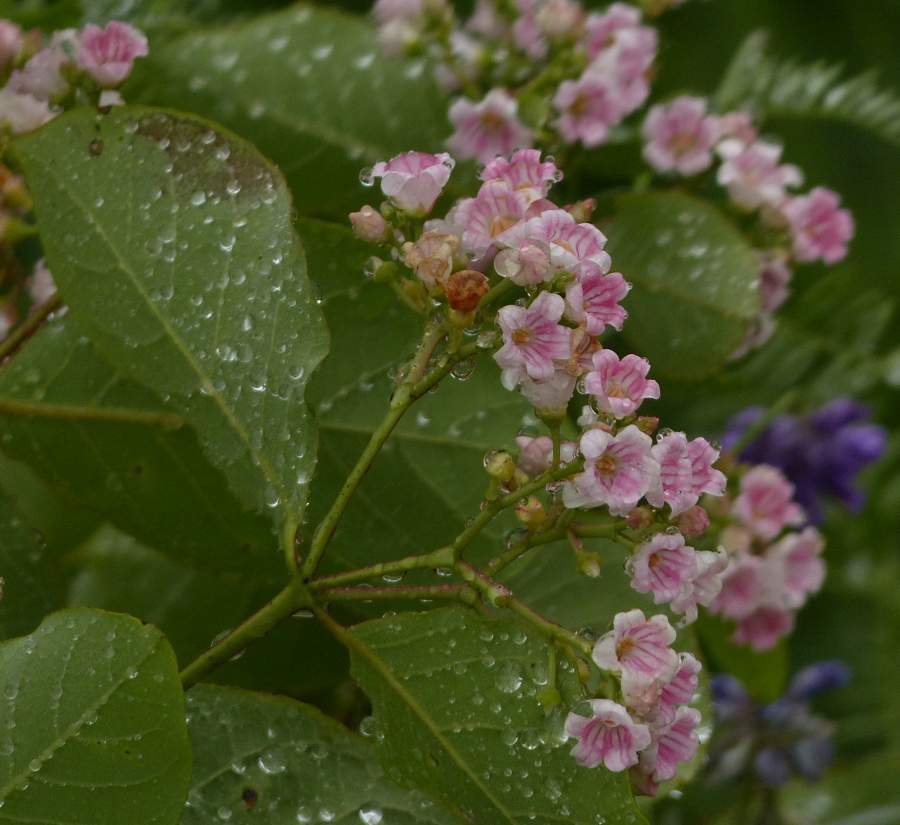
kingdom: Plantae
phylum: Tracheophyta
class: Magnoliopsida
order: Gentianales
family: Apocynaceae
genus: Apocynum
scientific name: Apocynum androsaemifolium
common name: Spreading dogbane
